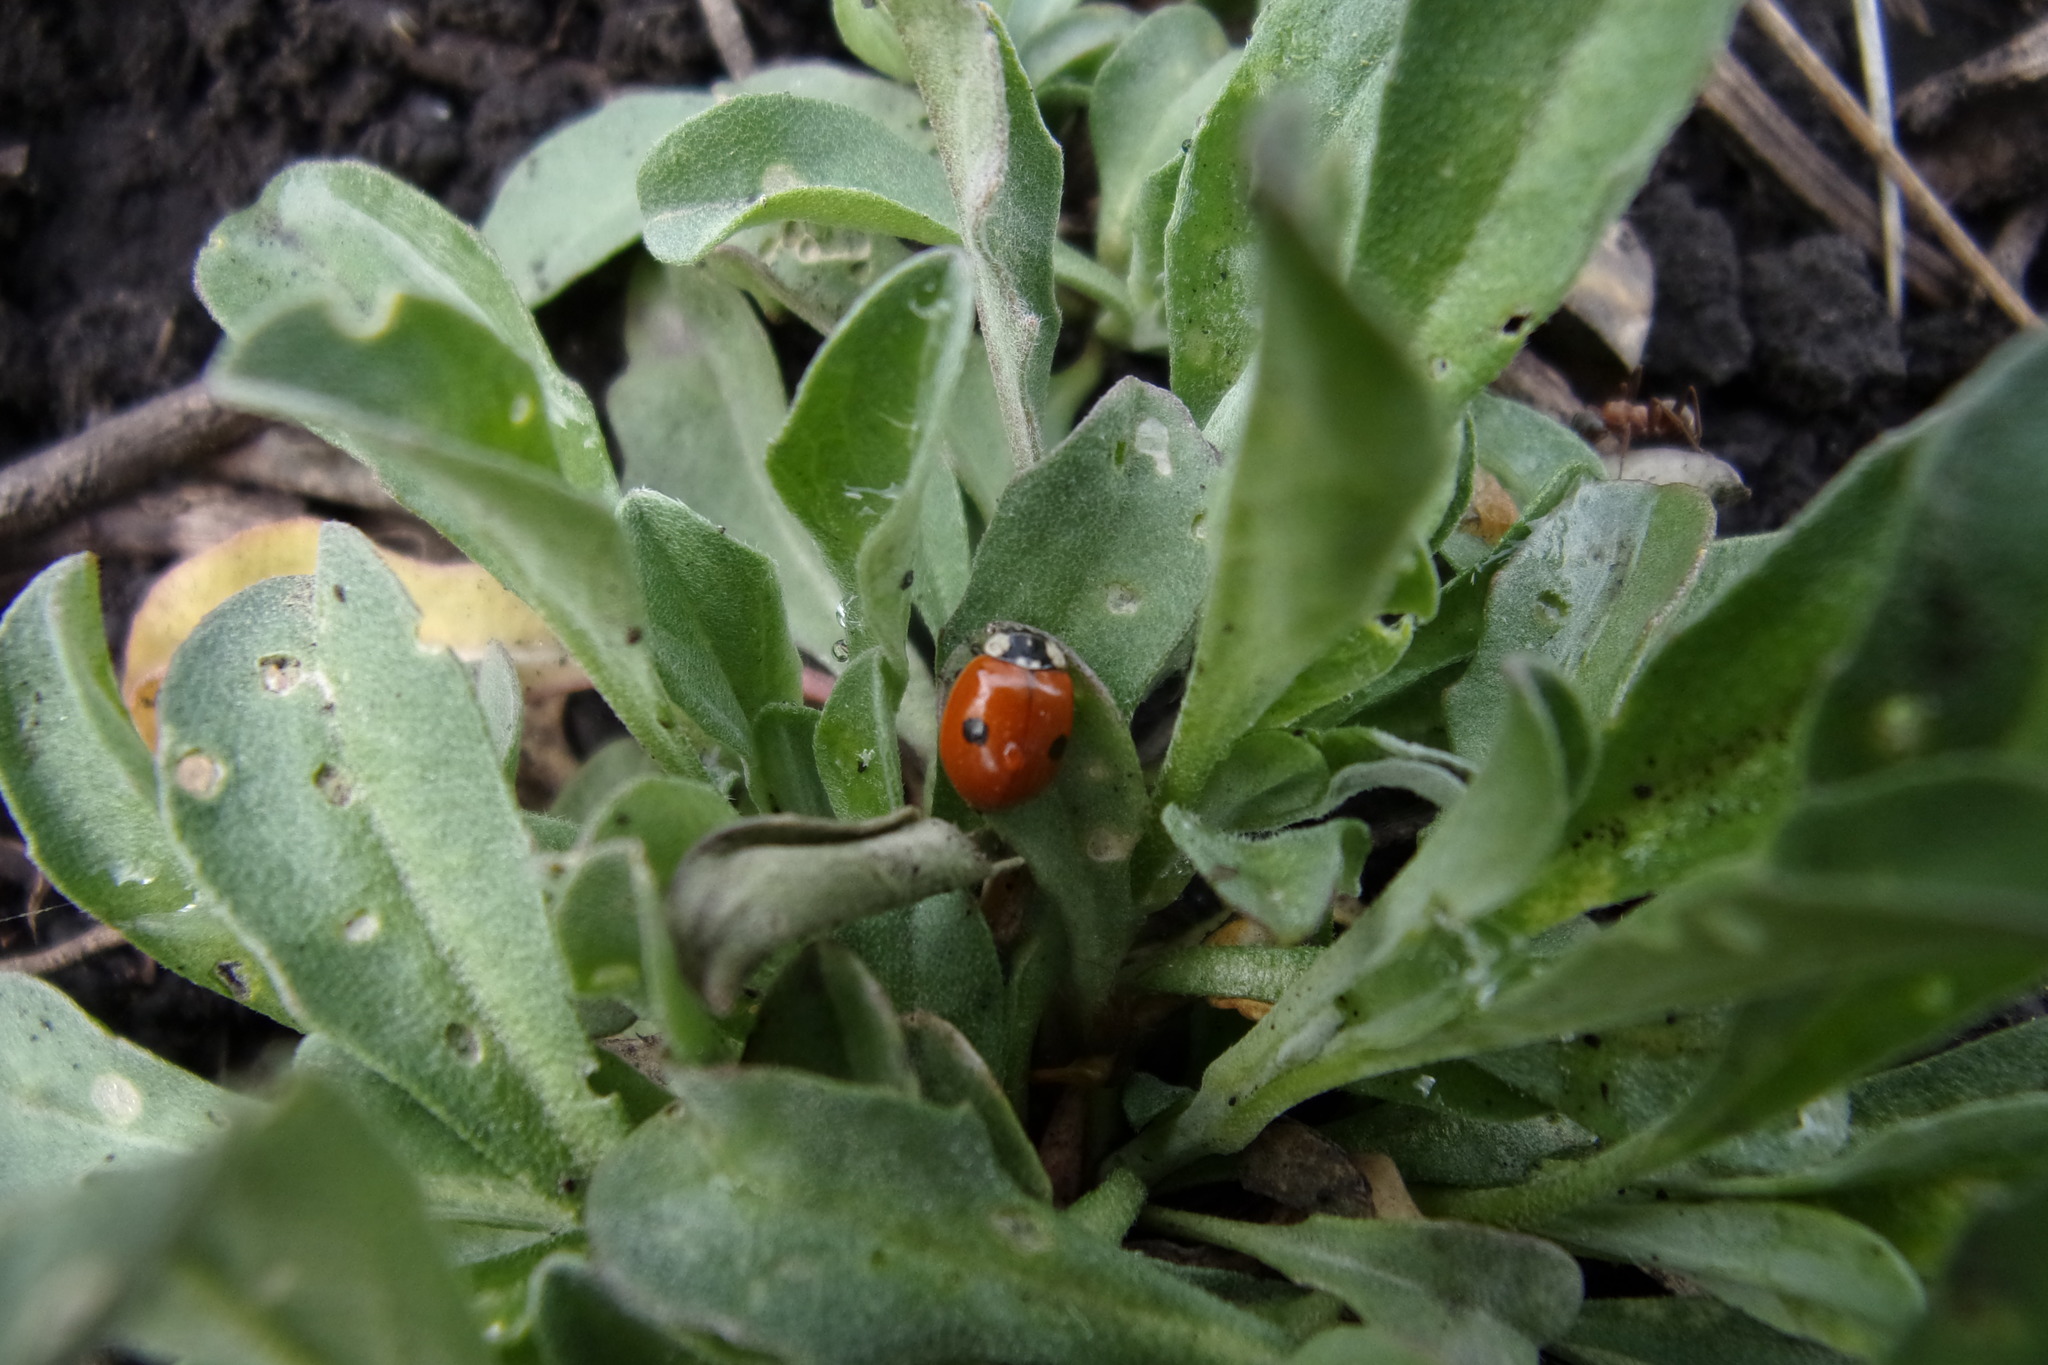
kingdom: Animalia
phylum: Arthropoda
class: Insecta
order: Coleoptera
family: Coccinellidae
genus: Adalia
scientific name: Adalia bipunctata
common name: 2-spot ladybird
